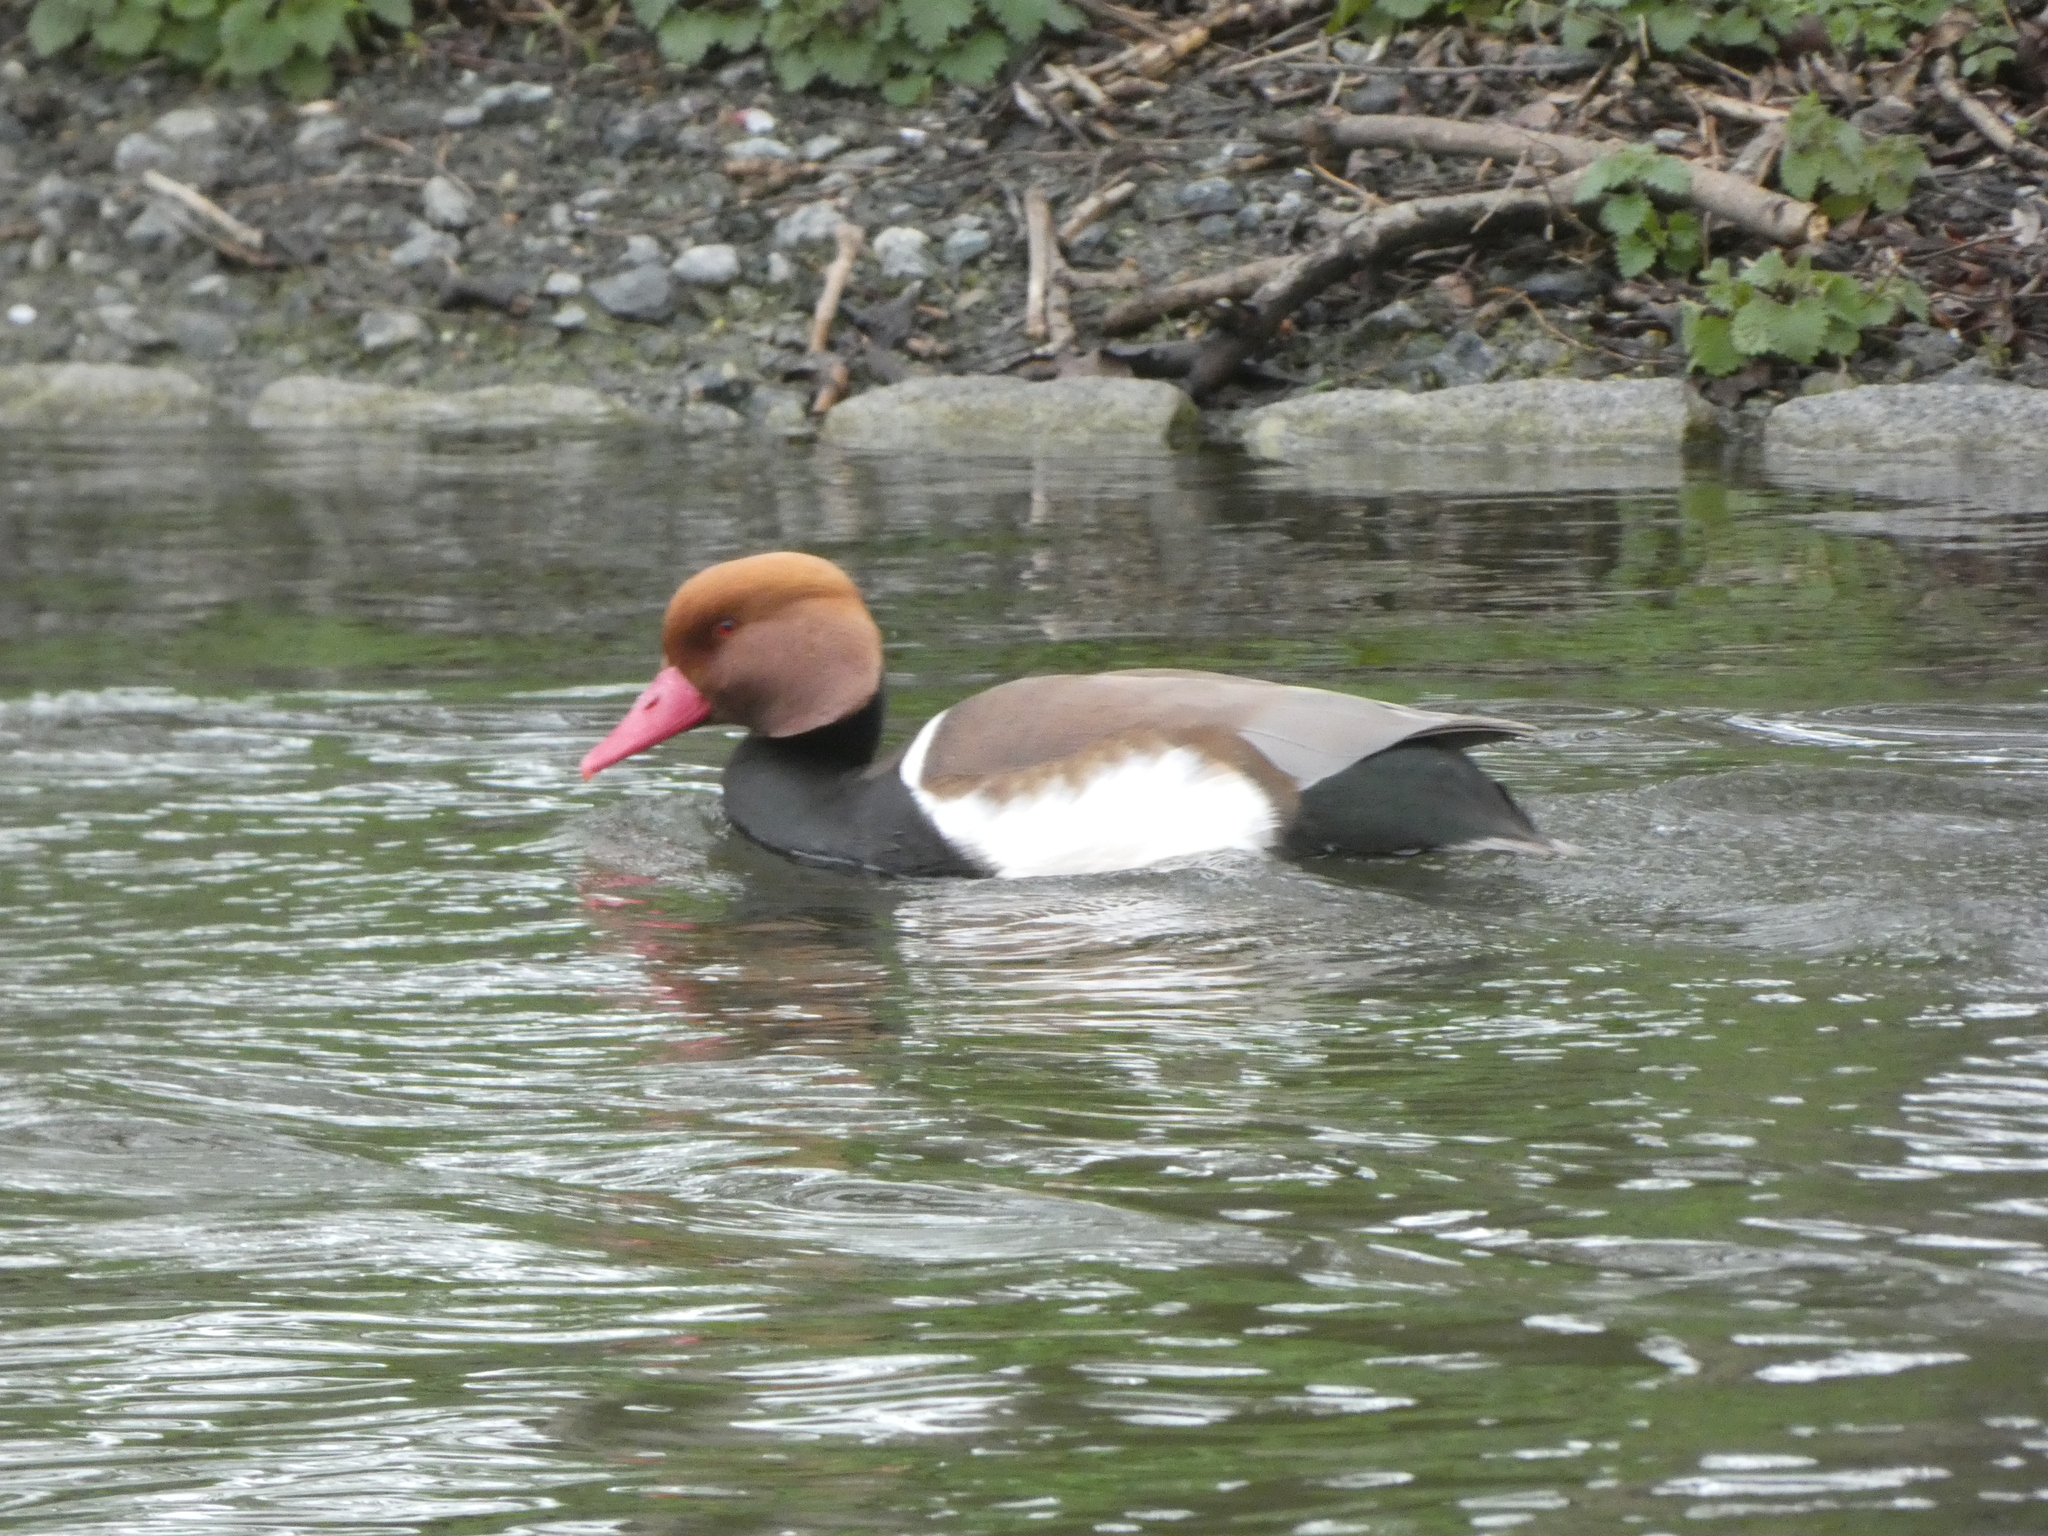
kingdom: Animalia
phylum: Chordata
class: Aves
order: Anseriformes
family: Anatidae
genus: Netta
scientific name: Netta rufina
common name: Red-crested pochard
